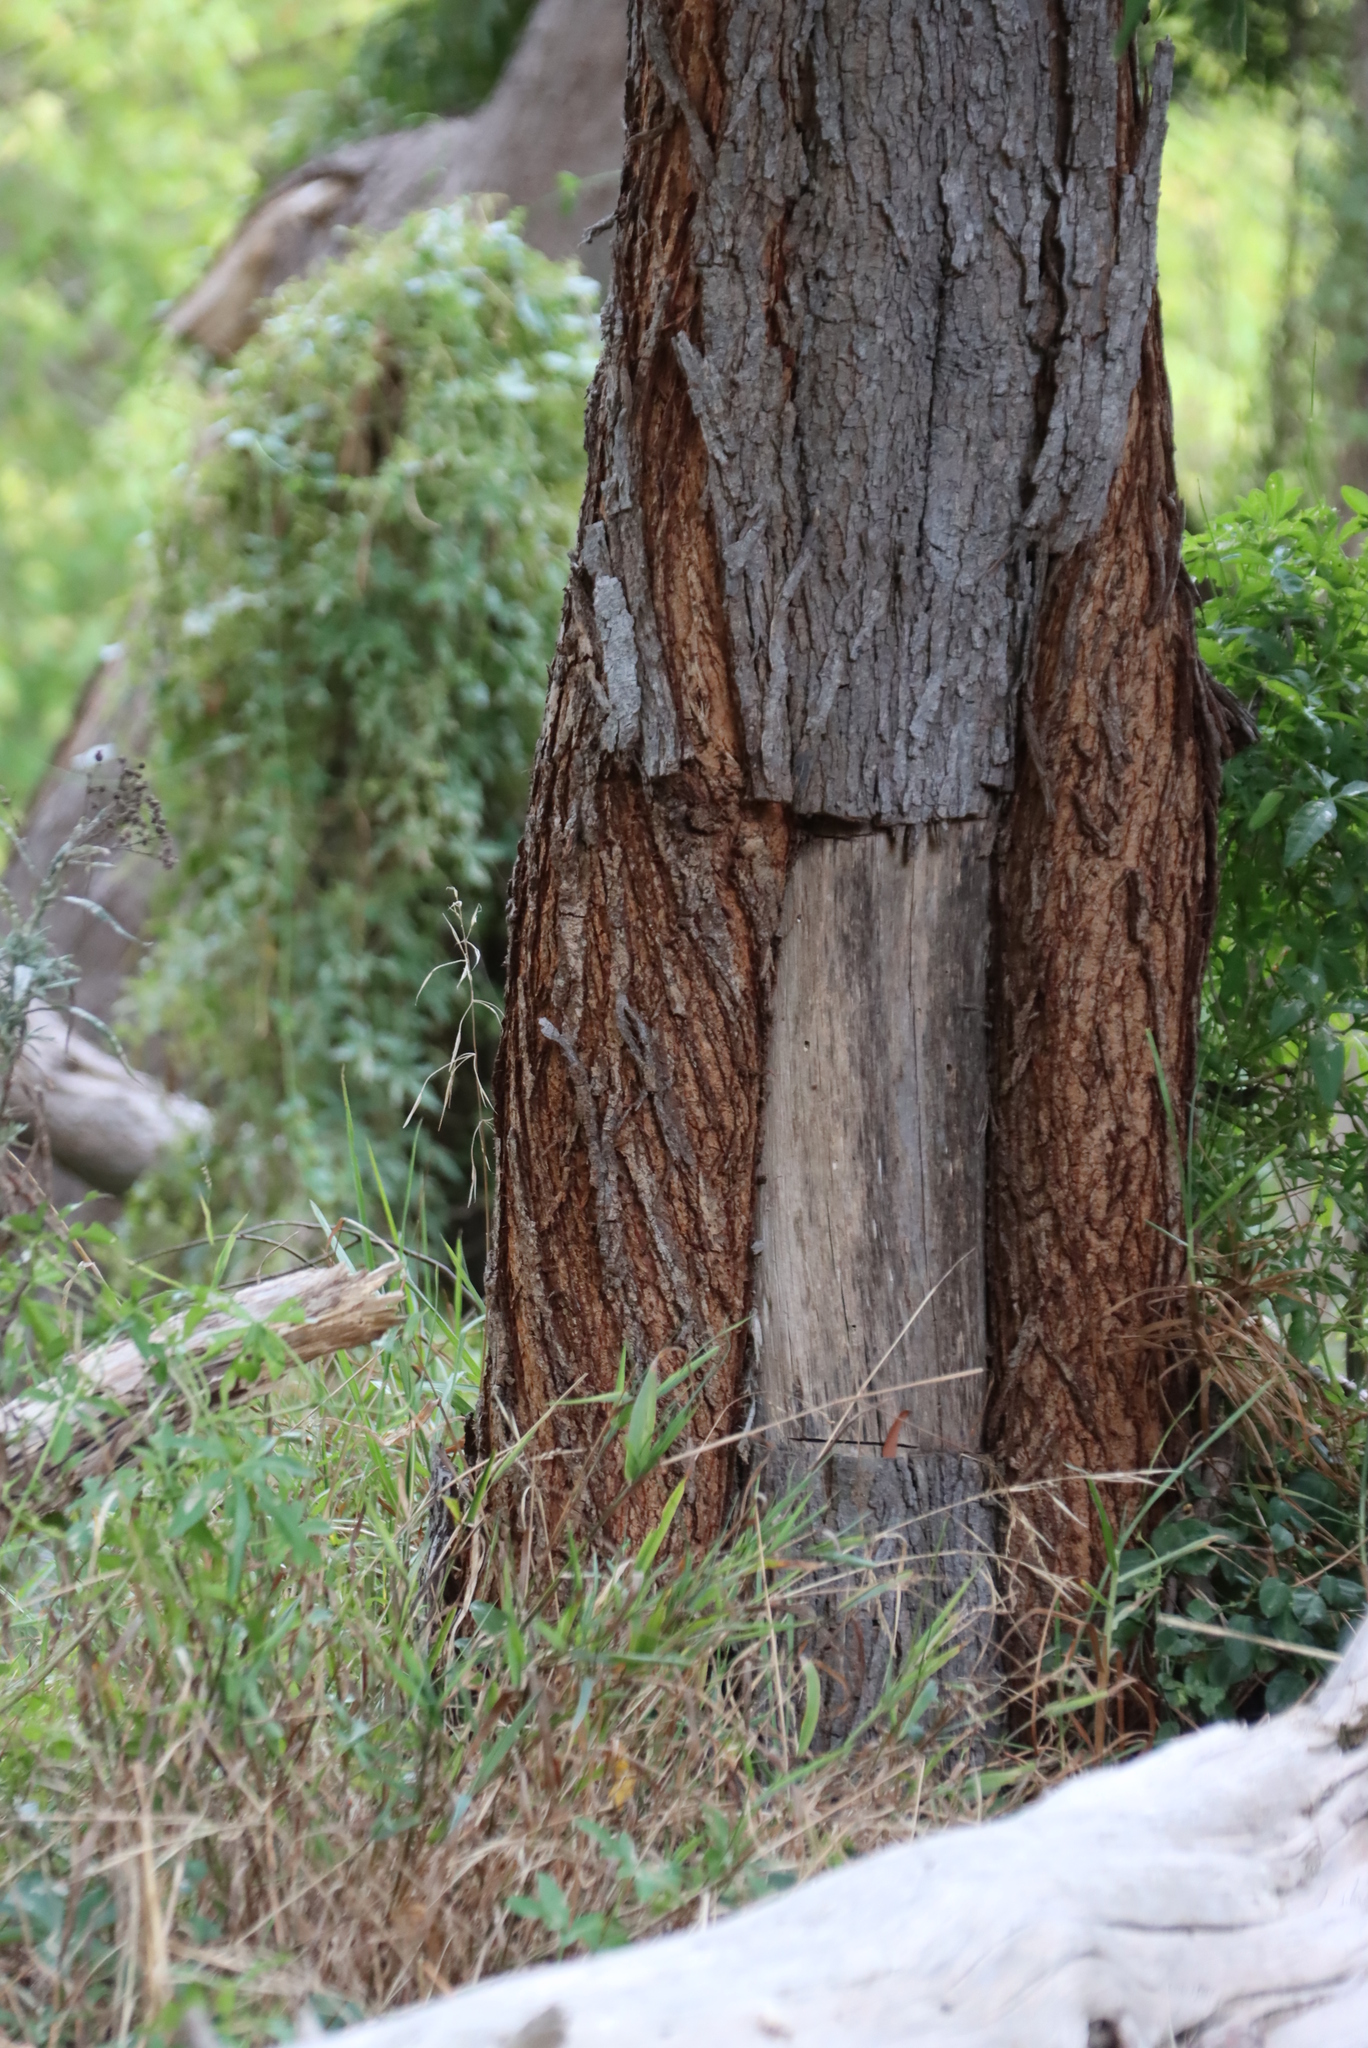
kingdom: Plantae
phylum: Tracheophyta
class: Magnoliopsida
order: Fabales
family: Fabaceae
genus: Acacia
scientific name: Acacia melanoxylon
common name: Blackwood
